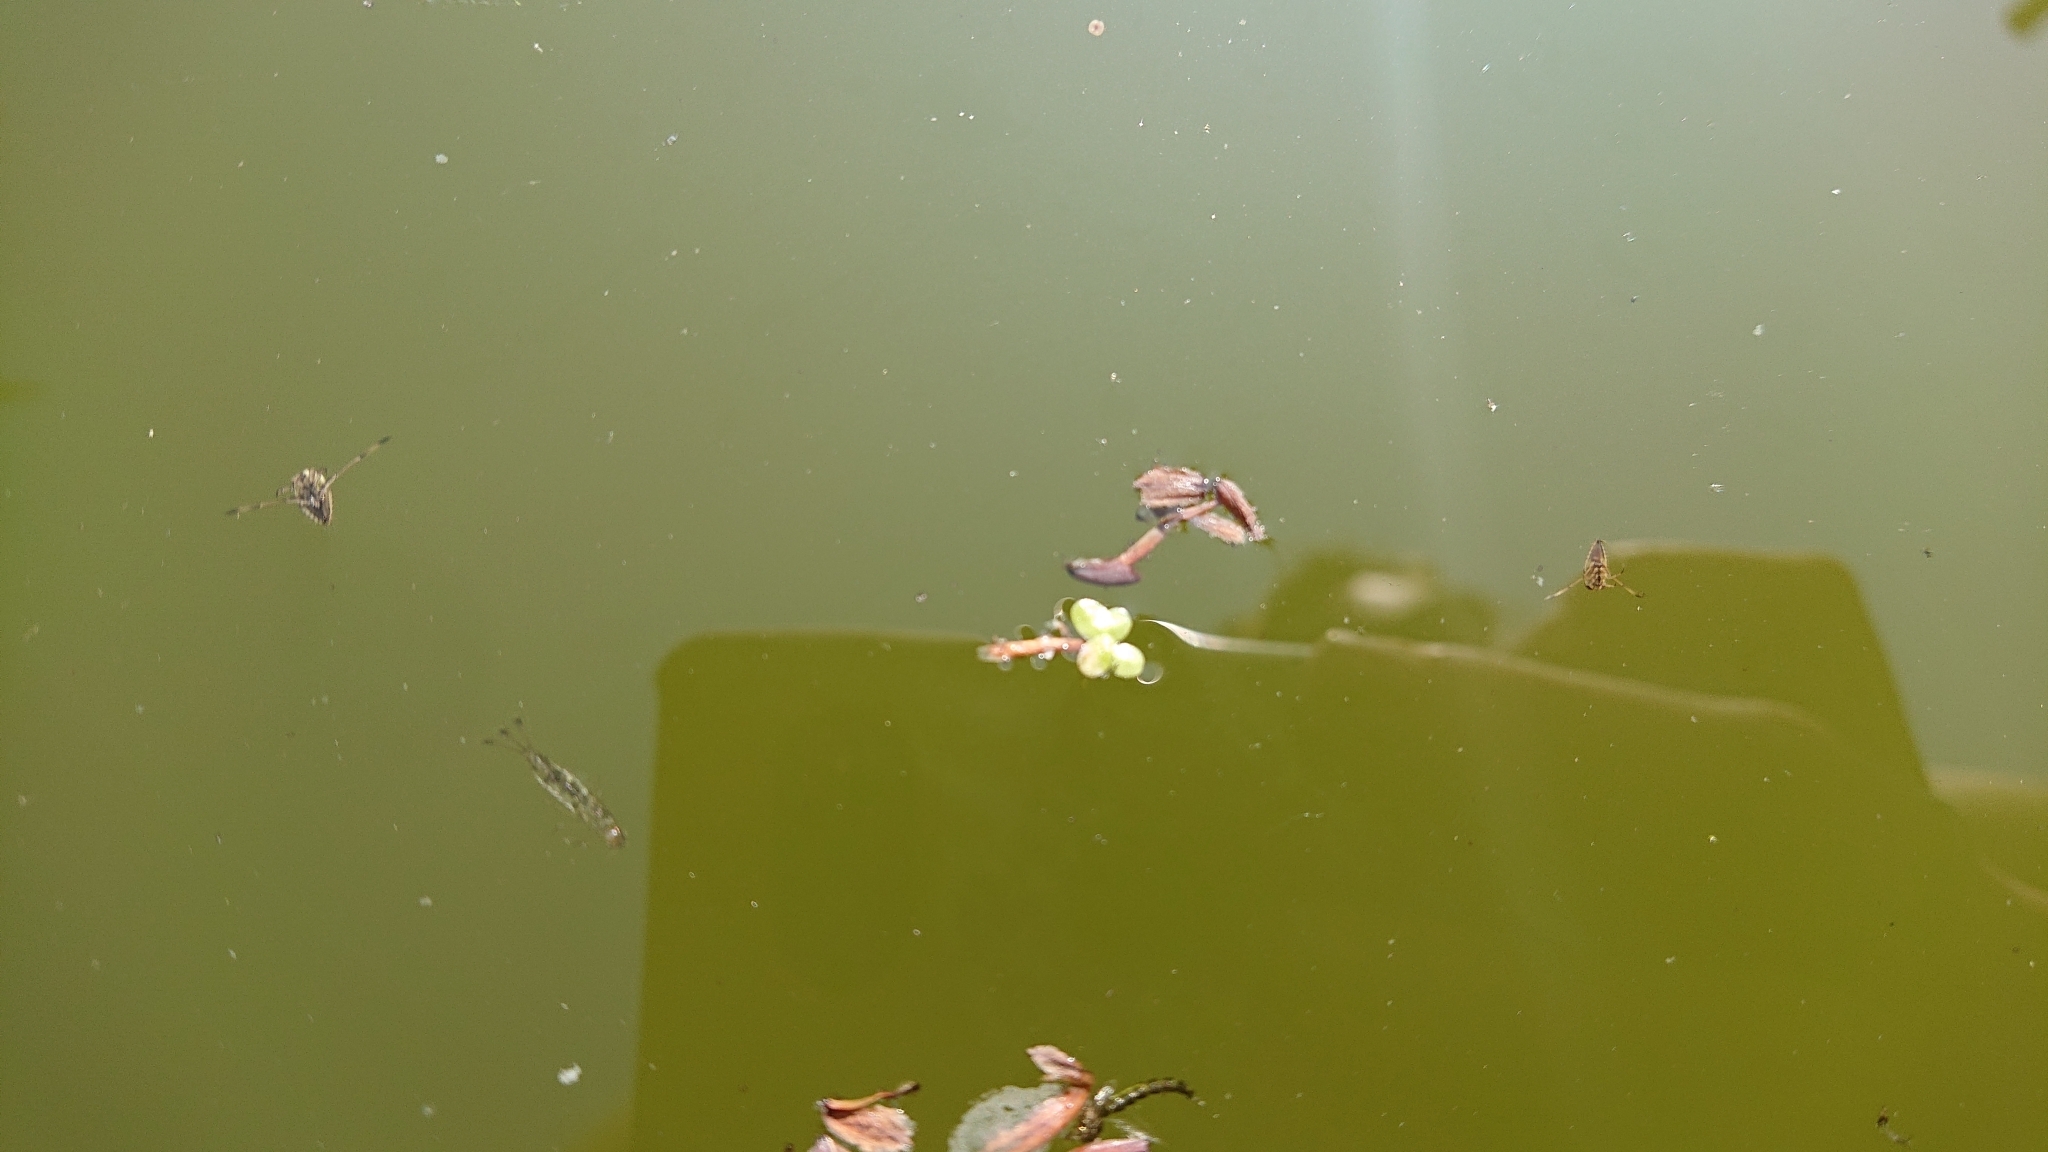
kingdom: Plantae
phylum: Tracheophyta
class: Liliopsida
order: Alismatales
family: Araceae
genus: Lemna
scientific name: Lemna minor
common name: Common duckweed
